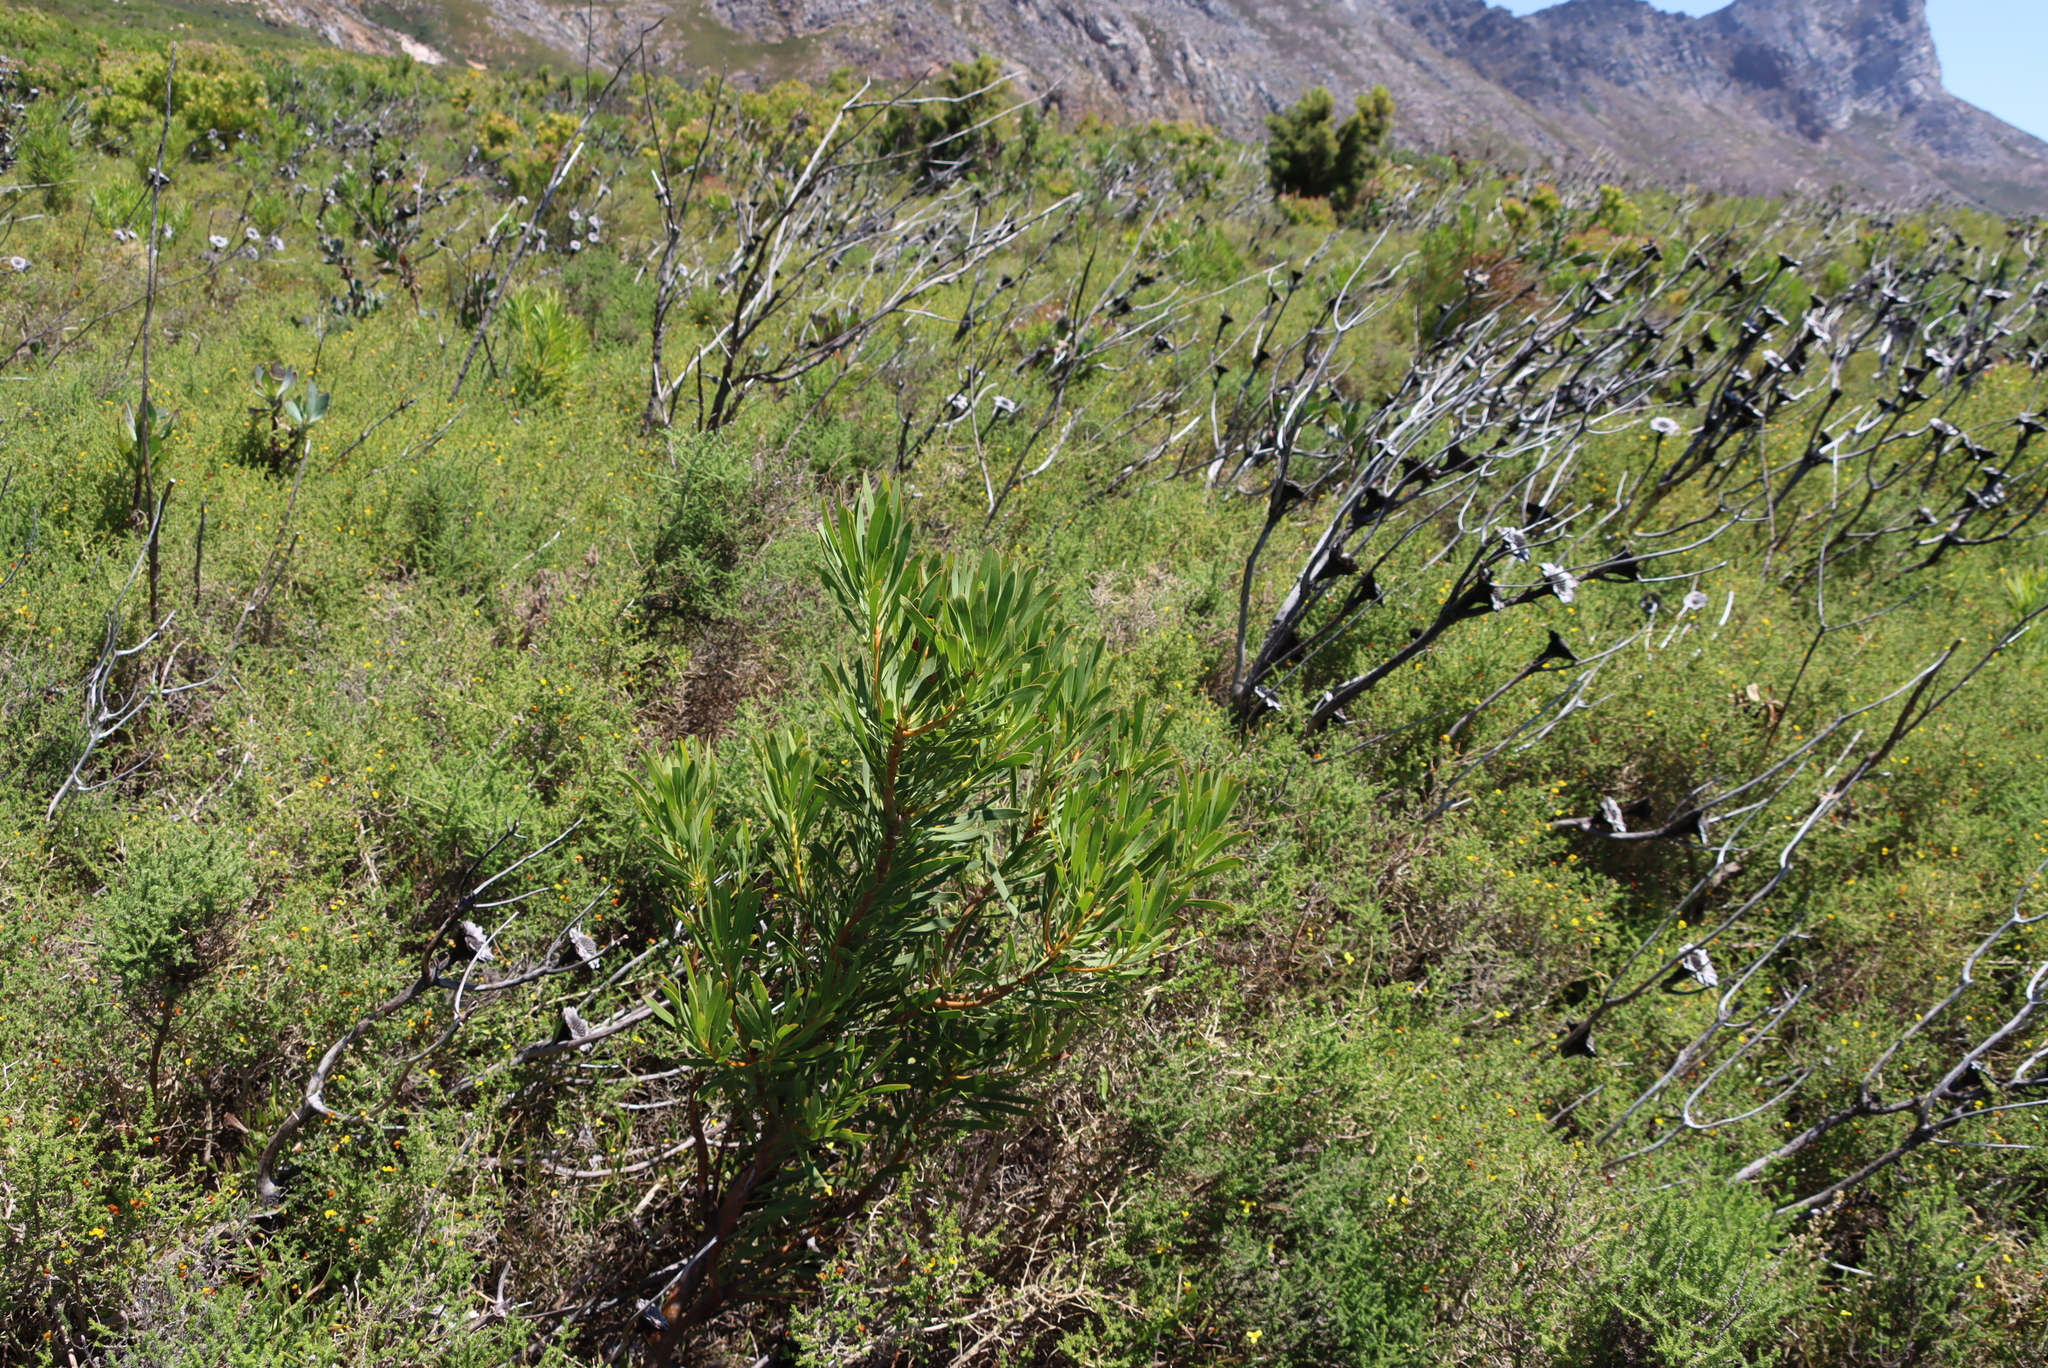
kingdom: Plantae
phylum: Tracheophyta
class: Magnoliopsida
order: Proteales
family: Proteaceae
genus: Protea
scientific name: Protea repens
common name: Sugarbush
